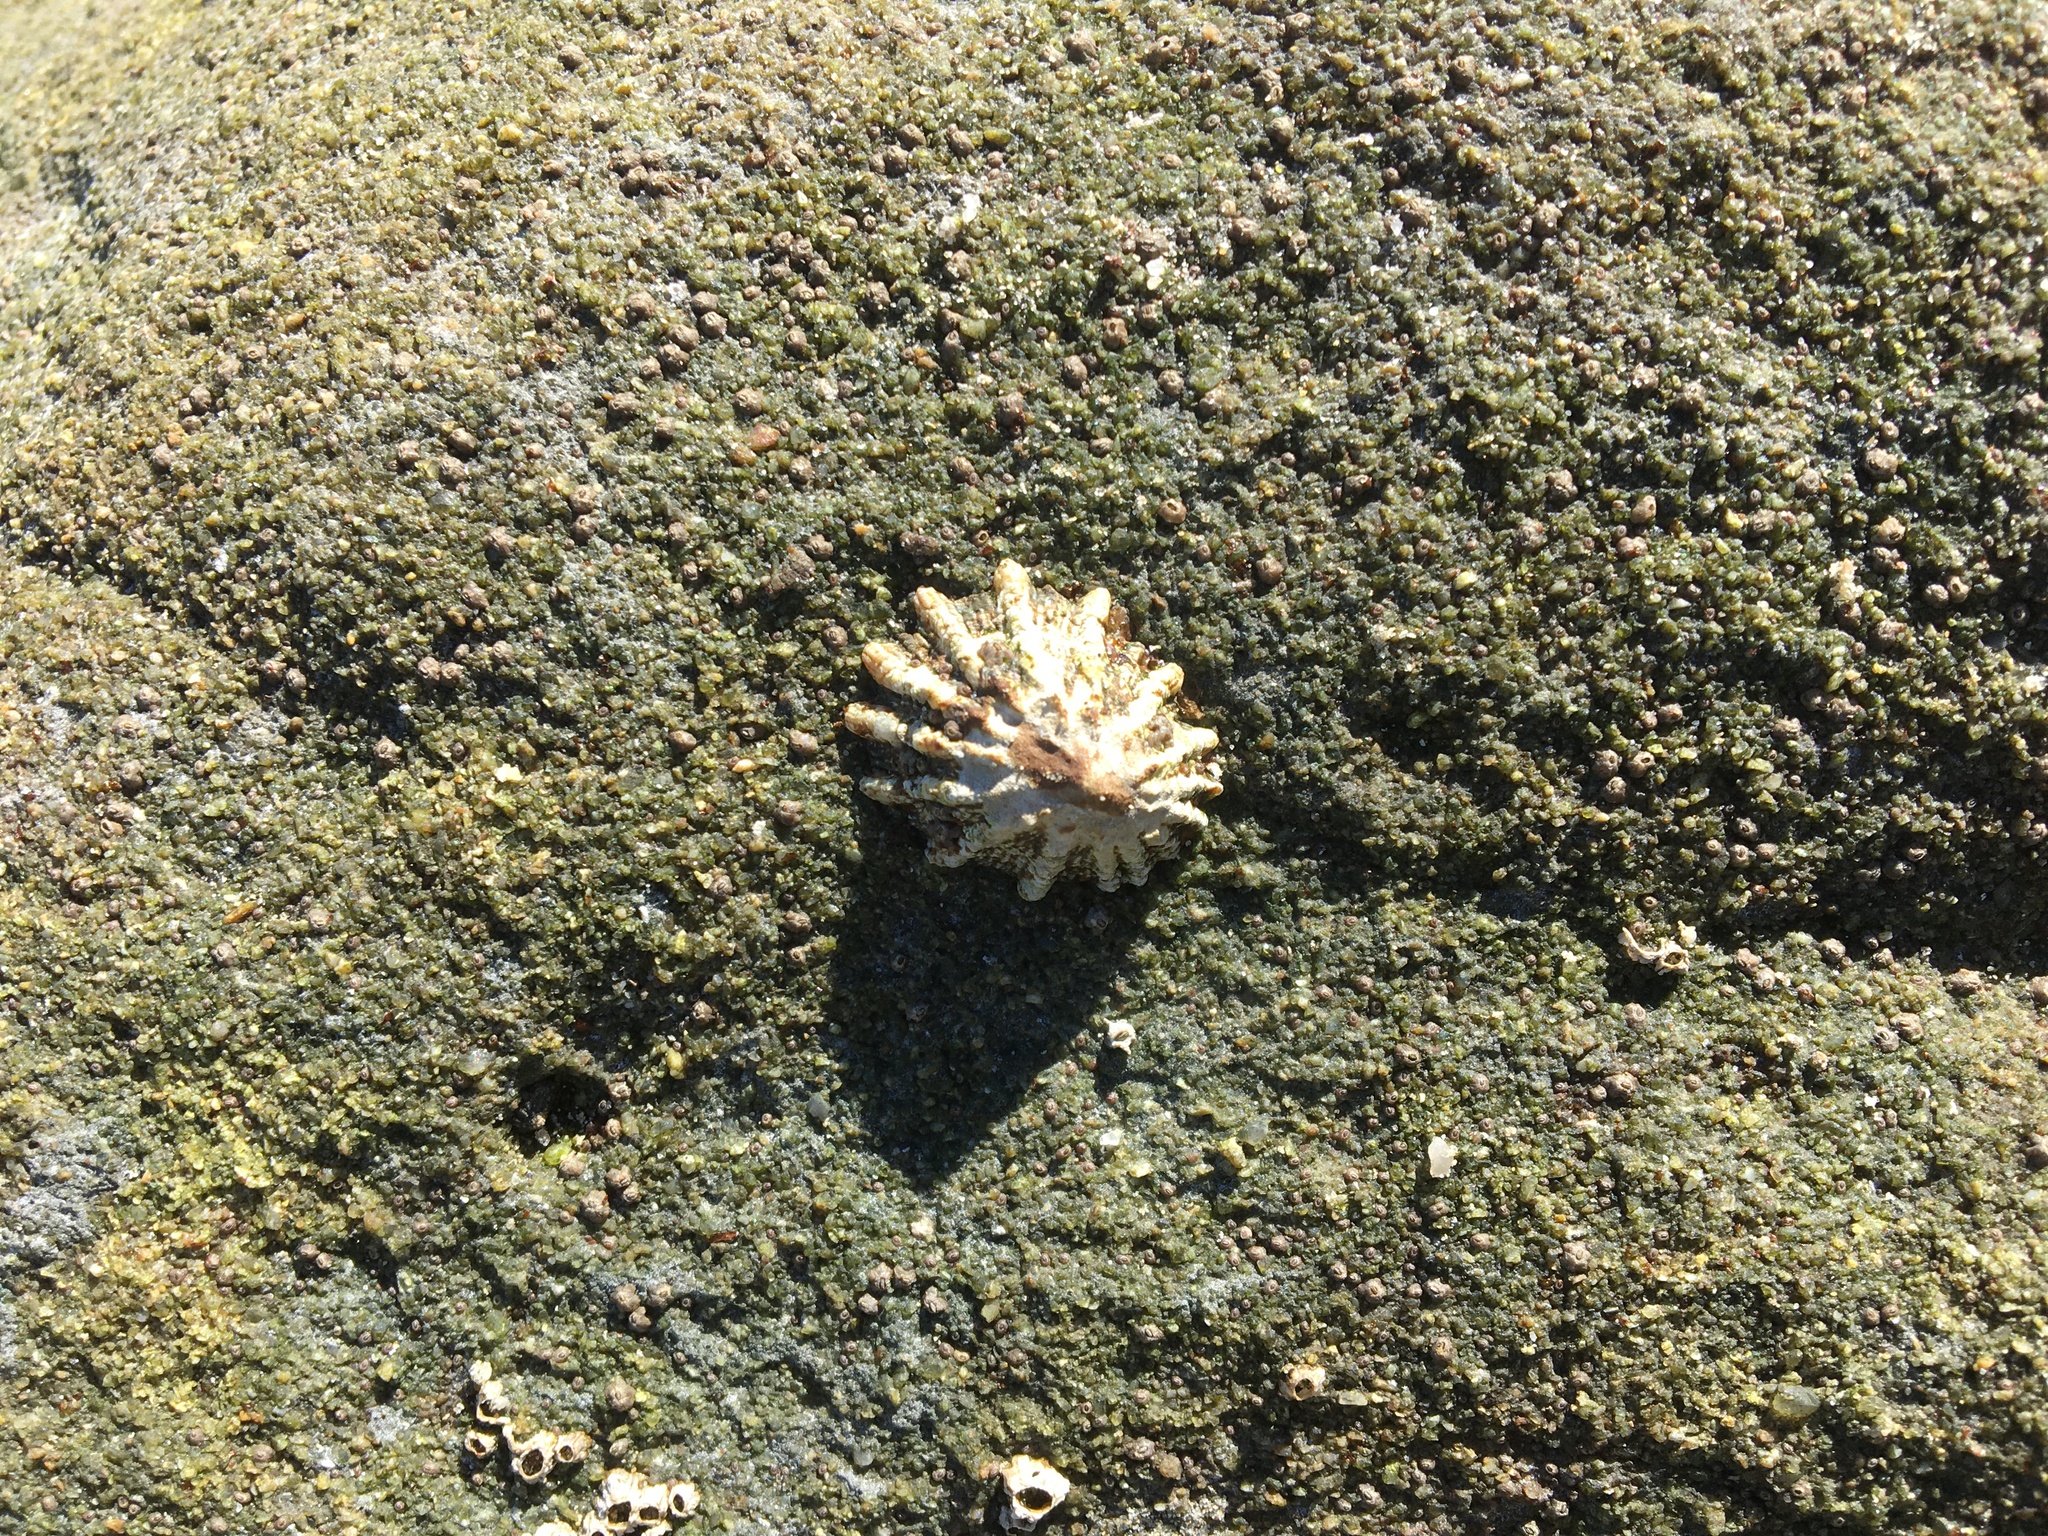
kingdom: Animalia
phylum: Mollusca
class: Gastropoda
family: Lottiidae
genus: Lottia
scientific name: Lottia scabra
